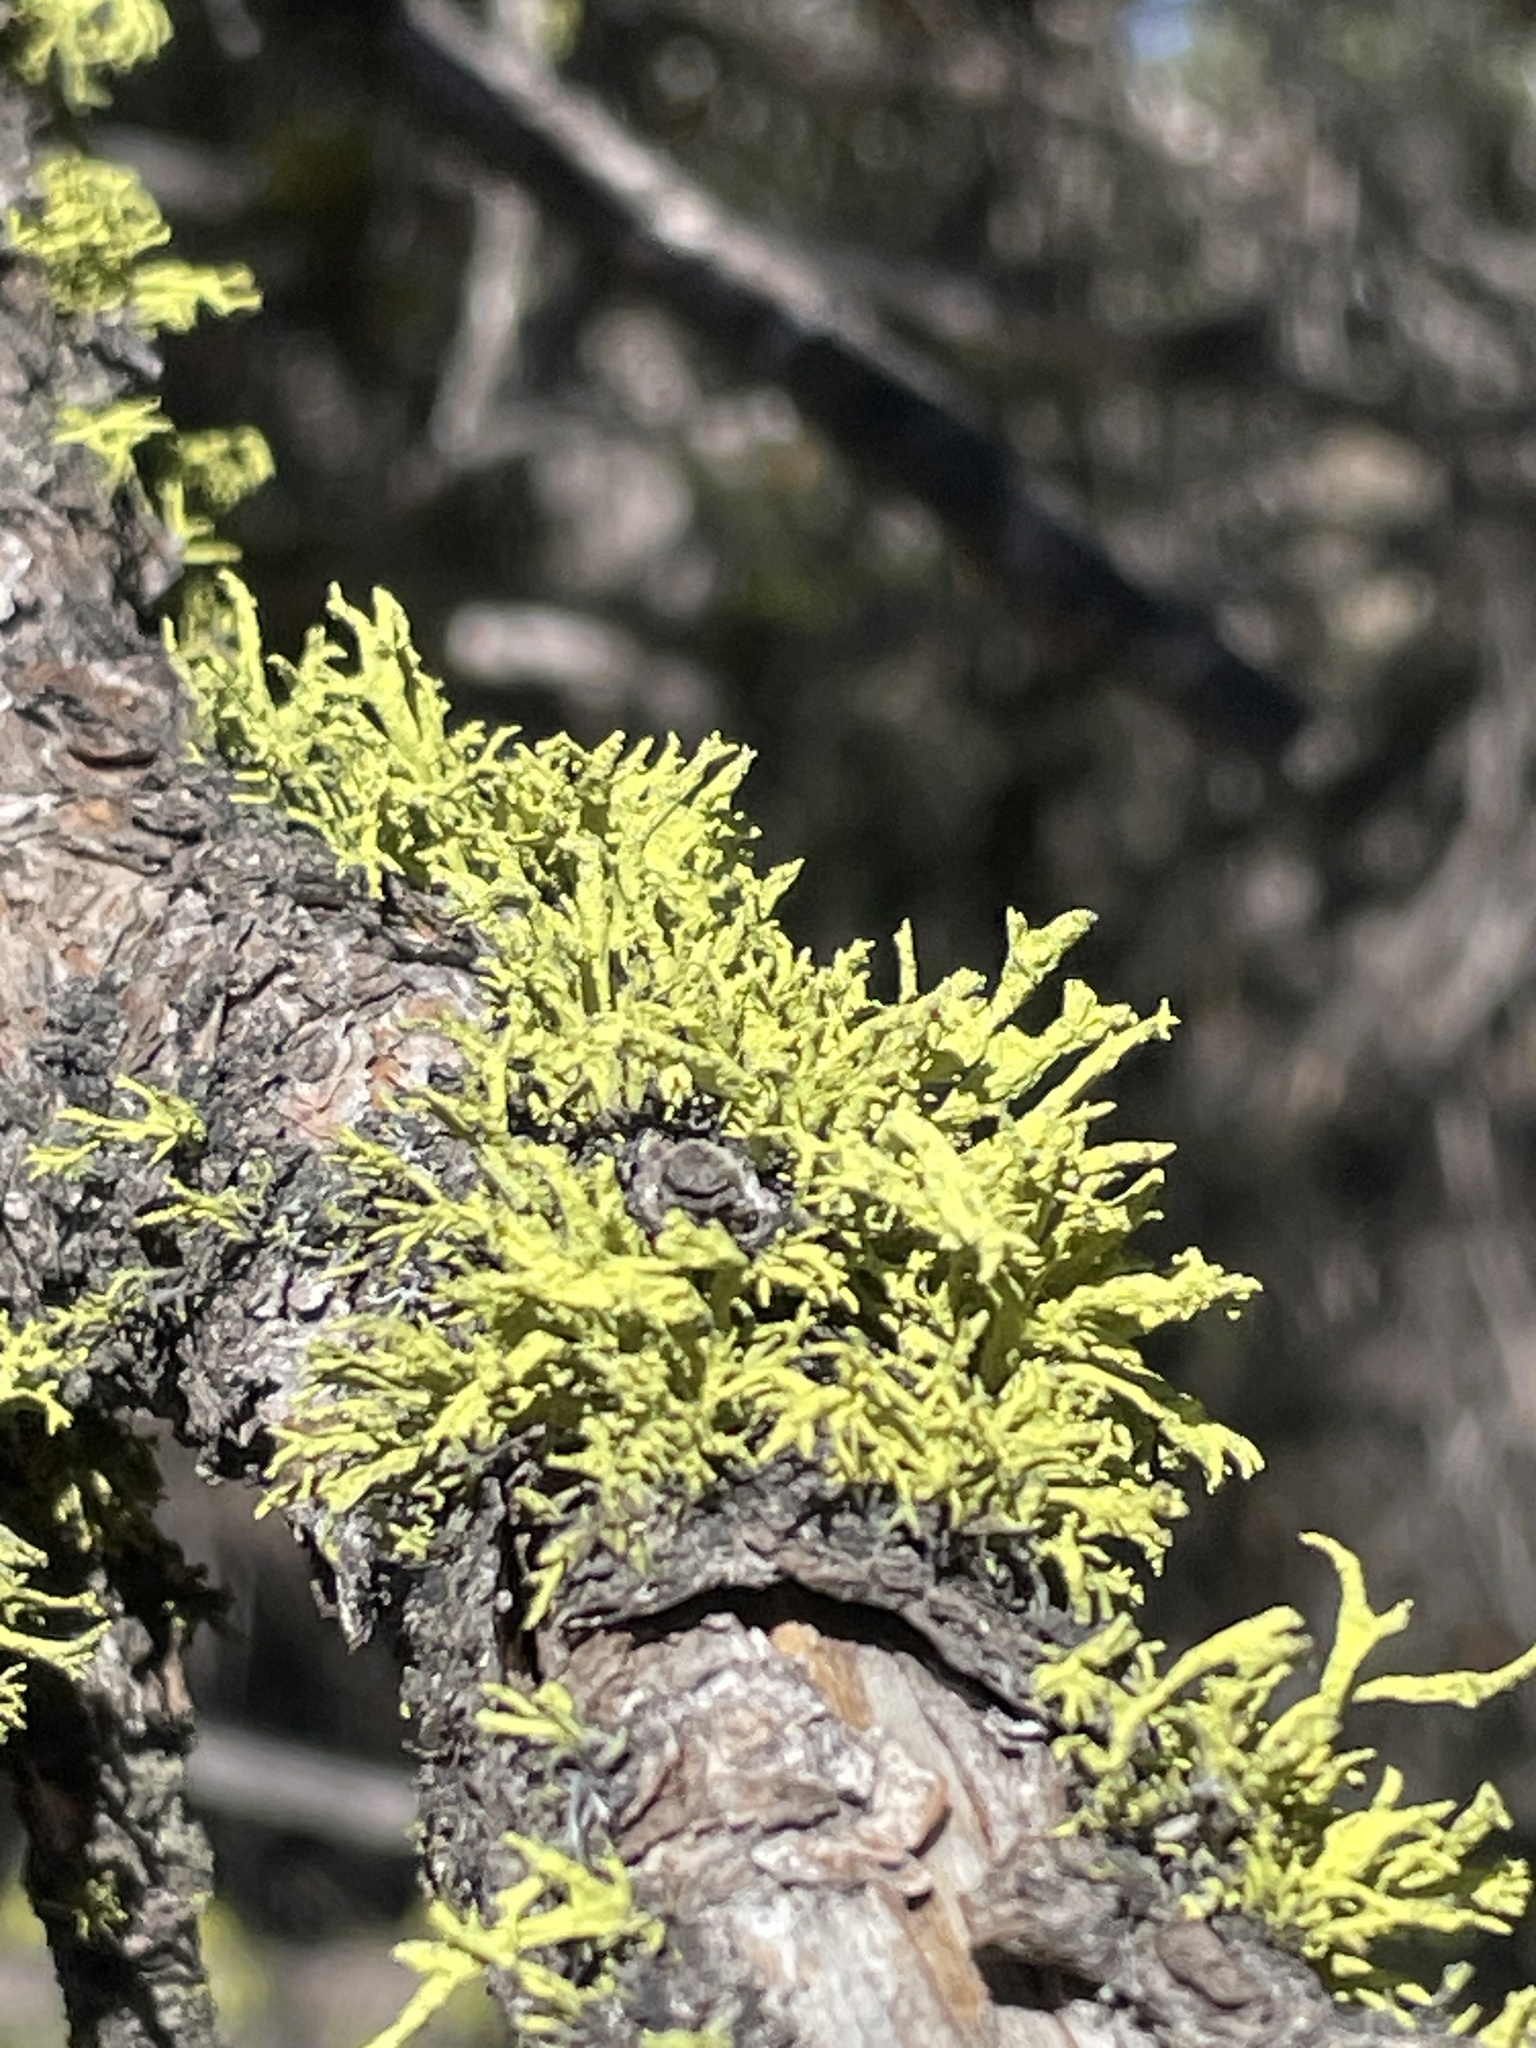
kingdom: Fungi
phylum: Ascomycota
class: Lecanoromycetes
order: Lecanorales
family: Parmeliaceae
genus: Letharia
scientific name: Letharia vulpina
